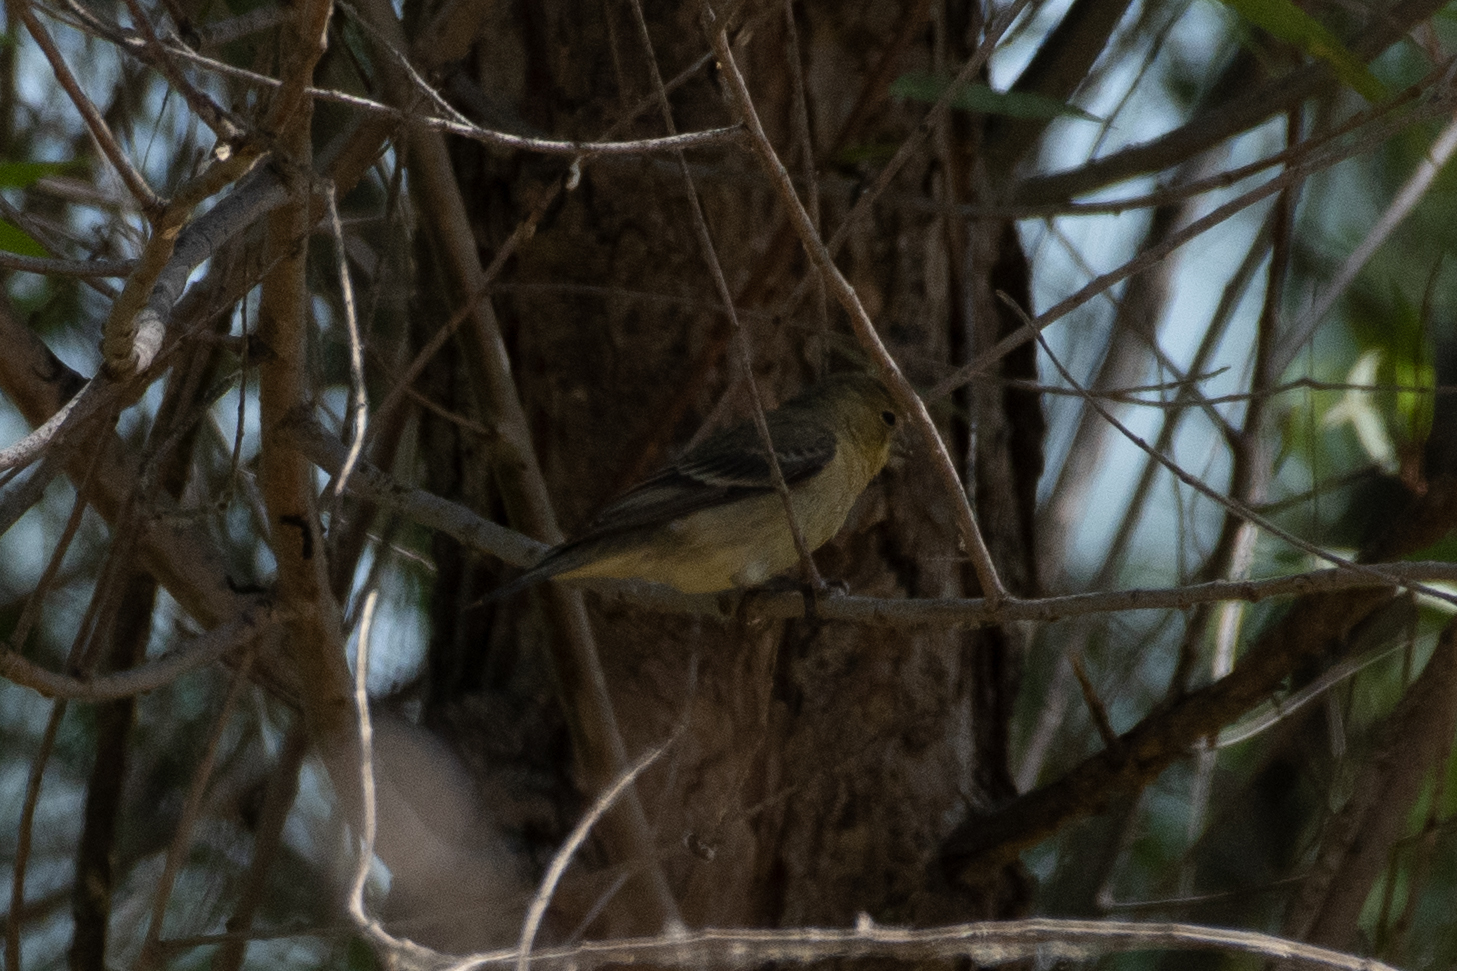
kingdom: Animalia
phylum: Chordata
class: Aves
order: Passeriformes
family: Fringillidae
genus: Spinus
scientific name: Spinus psaltria
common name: Lesser goldfinch
